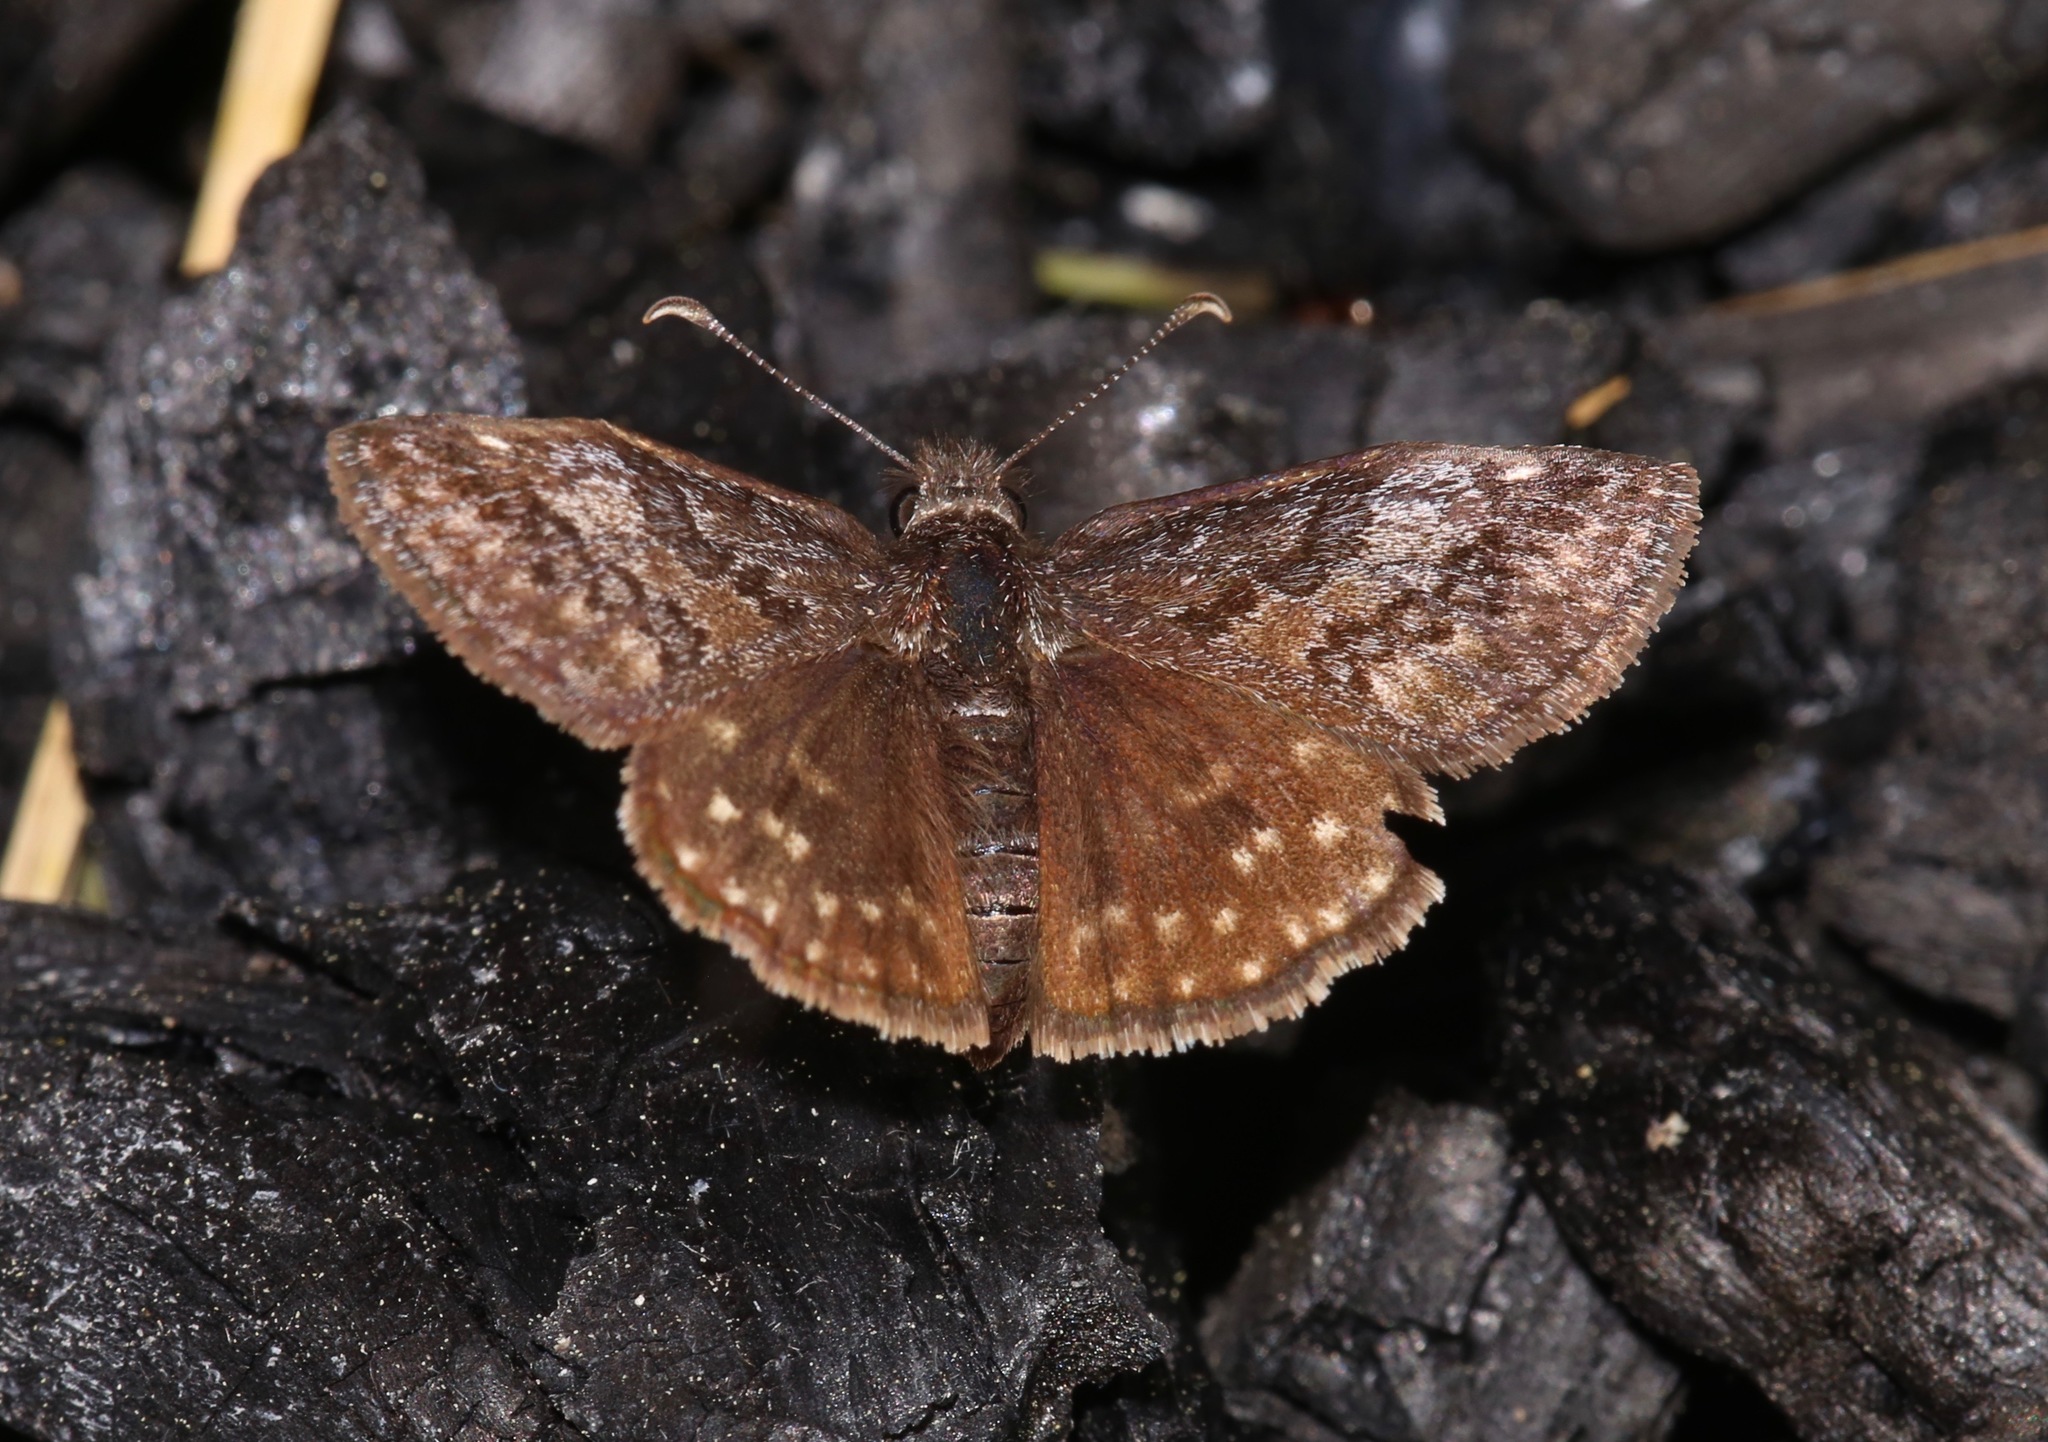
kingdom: Animalia
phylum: Arthropoda
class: Insecta
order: Lepidoptera
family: Hesperiidae
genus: Erynnis
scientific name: Erynnis icelus
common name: Dreamy duskywing
